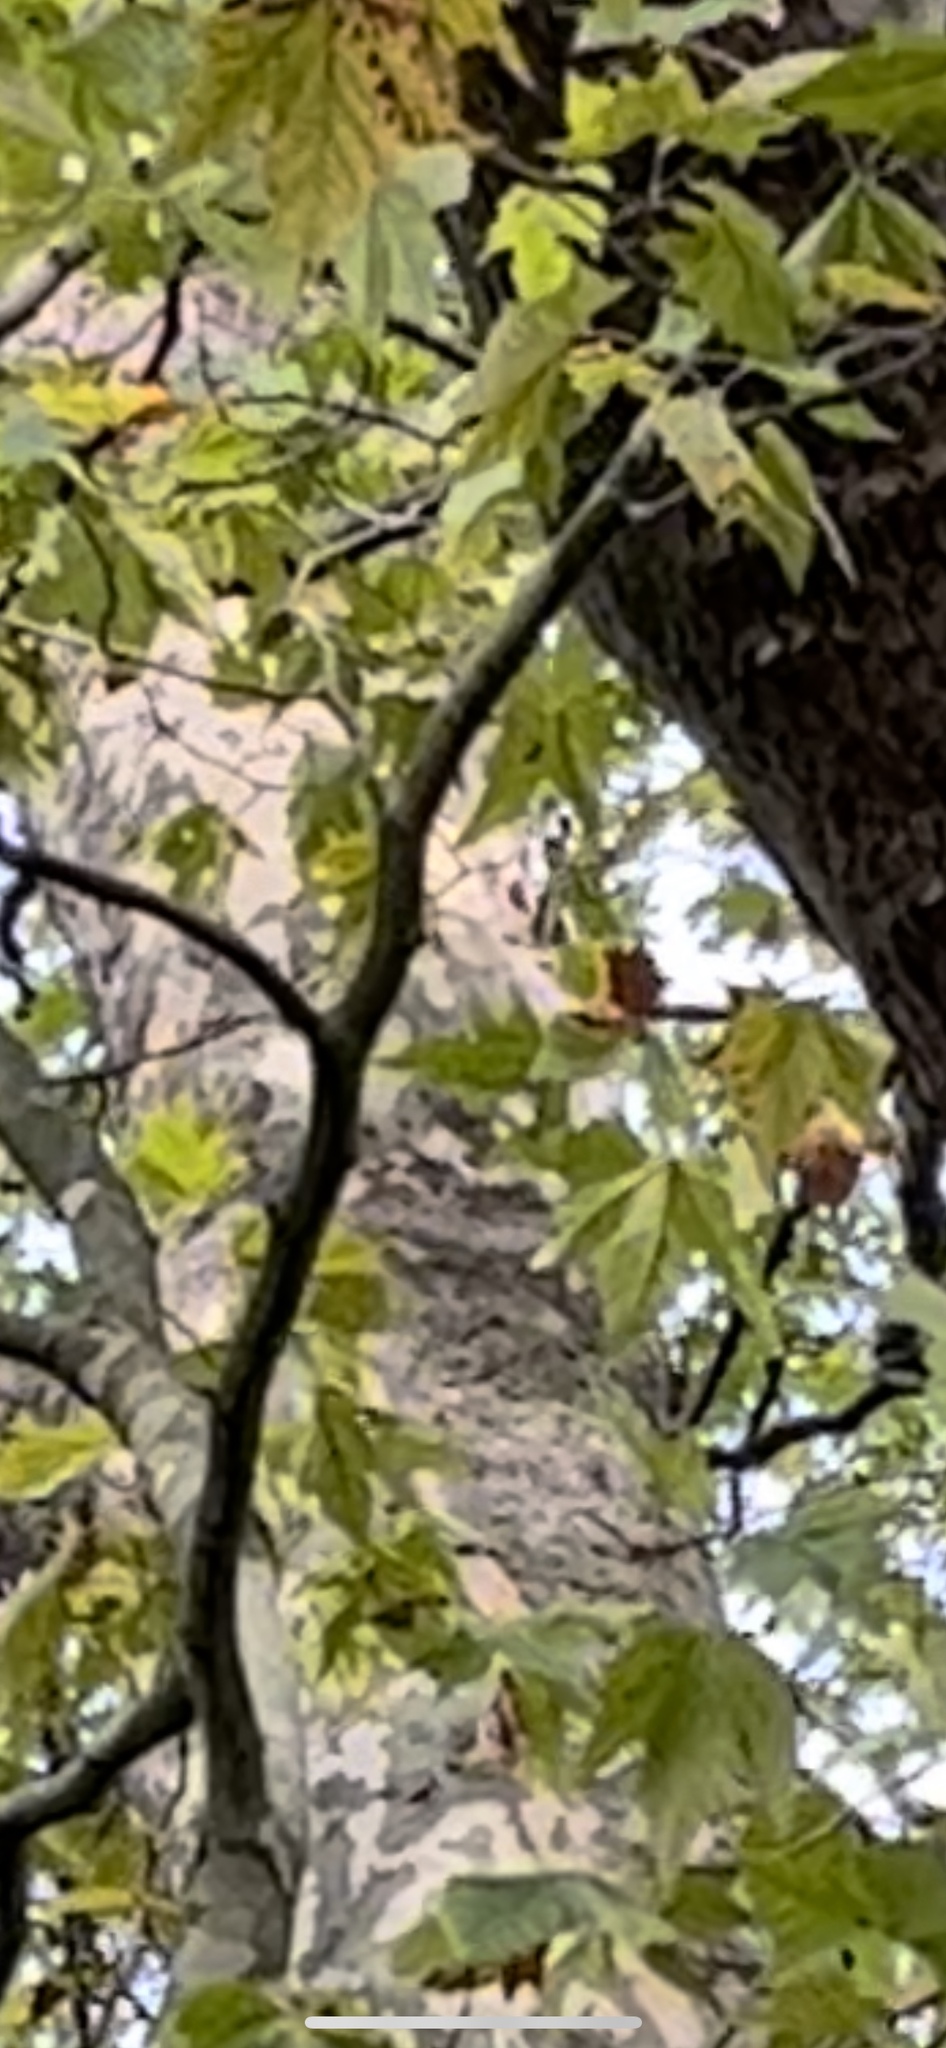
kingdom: Animalia
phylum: Chordata
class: Aves
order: Piciformes
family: Picidae
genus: Dendrocopos
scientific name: Dendrocopos major
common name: Great spotted woodpecker
